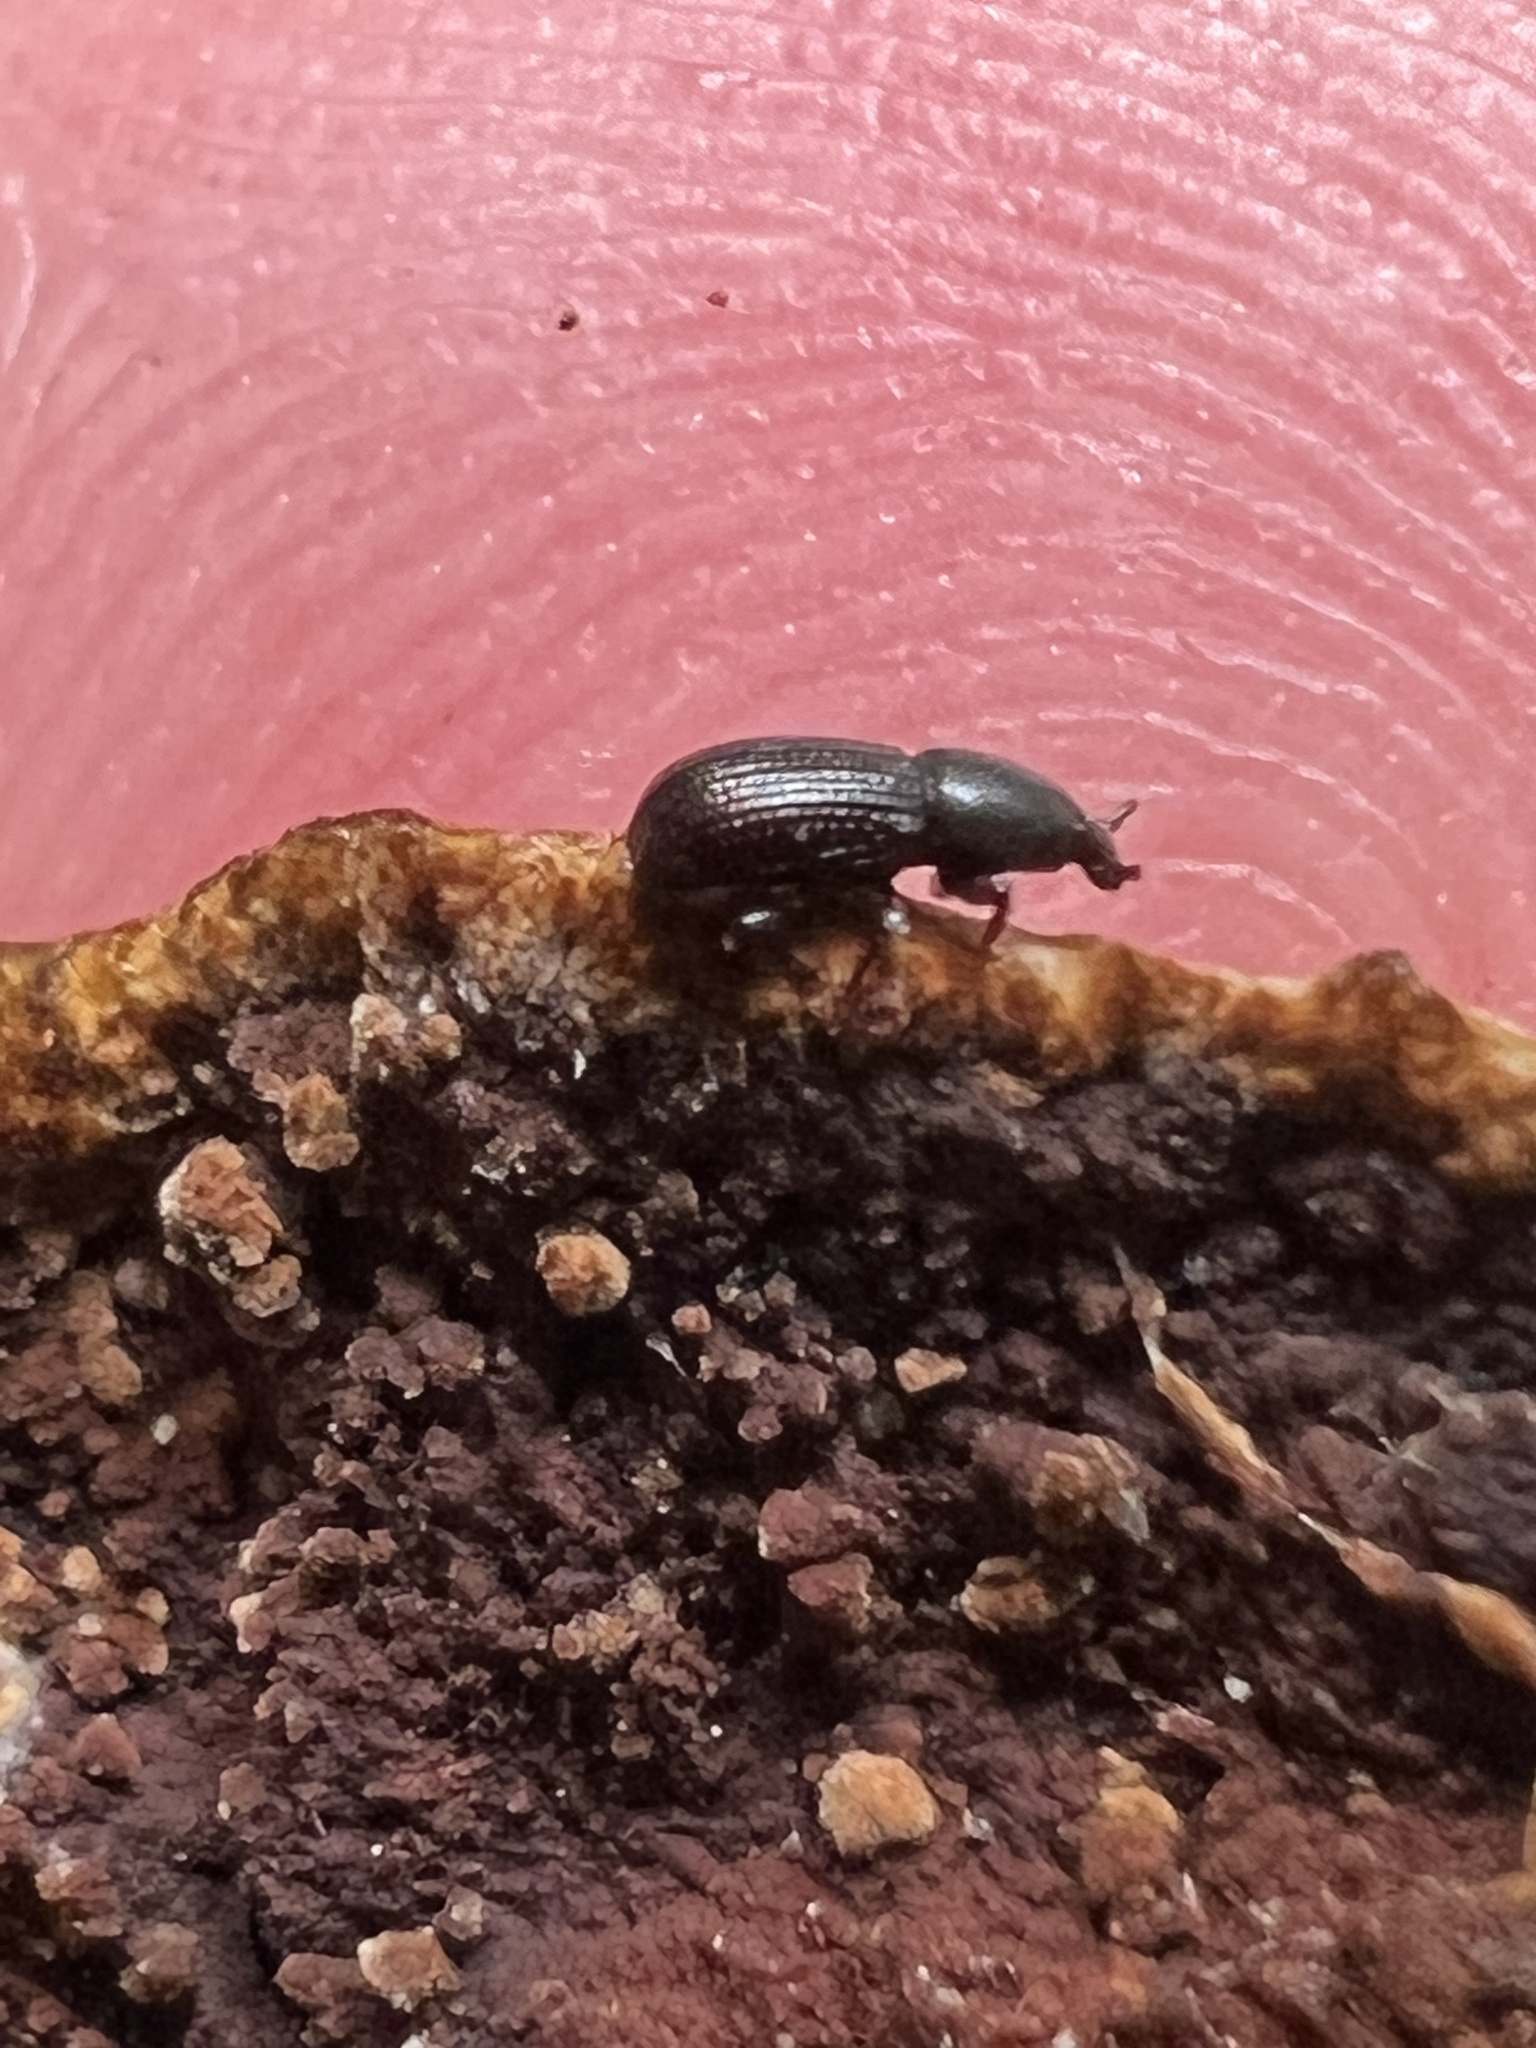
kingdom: Animalia
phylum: Arthropoda
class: Insecta
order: Coleoptera
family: Curculionidae
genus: Pseudopentarthrum
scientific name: Pseudopentarthrum simplex
